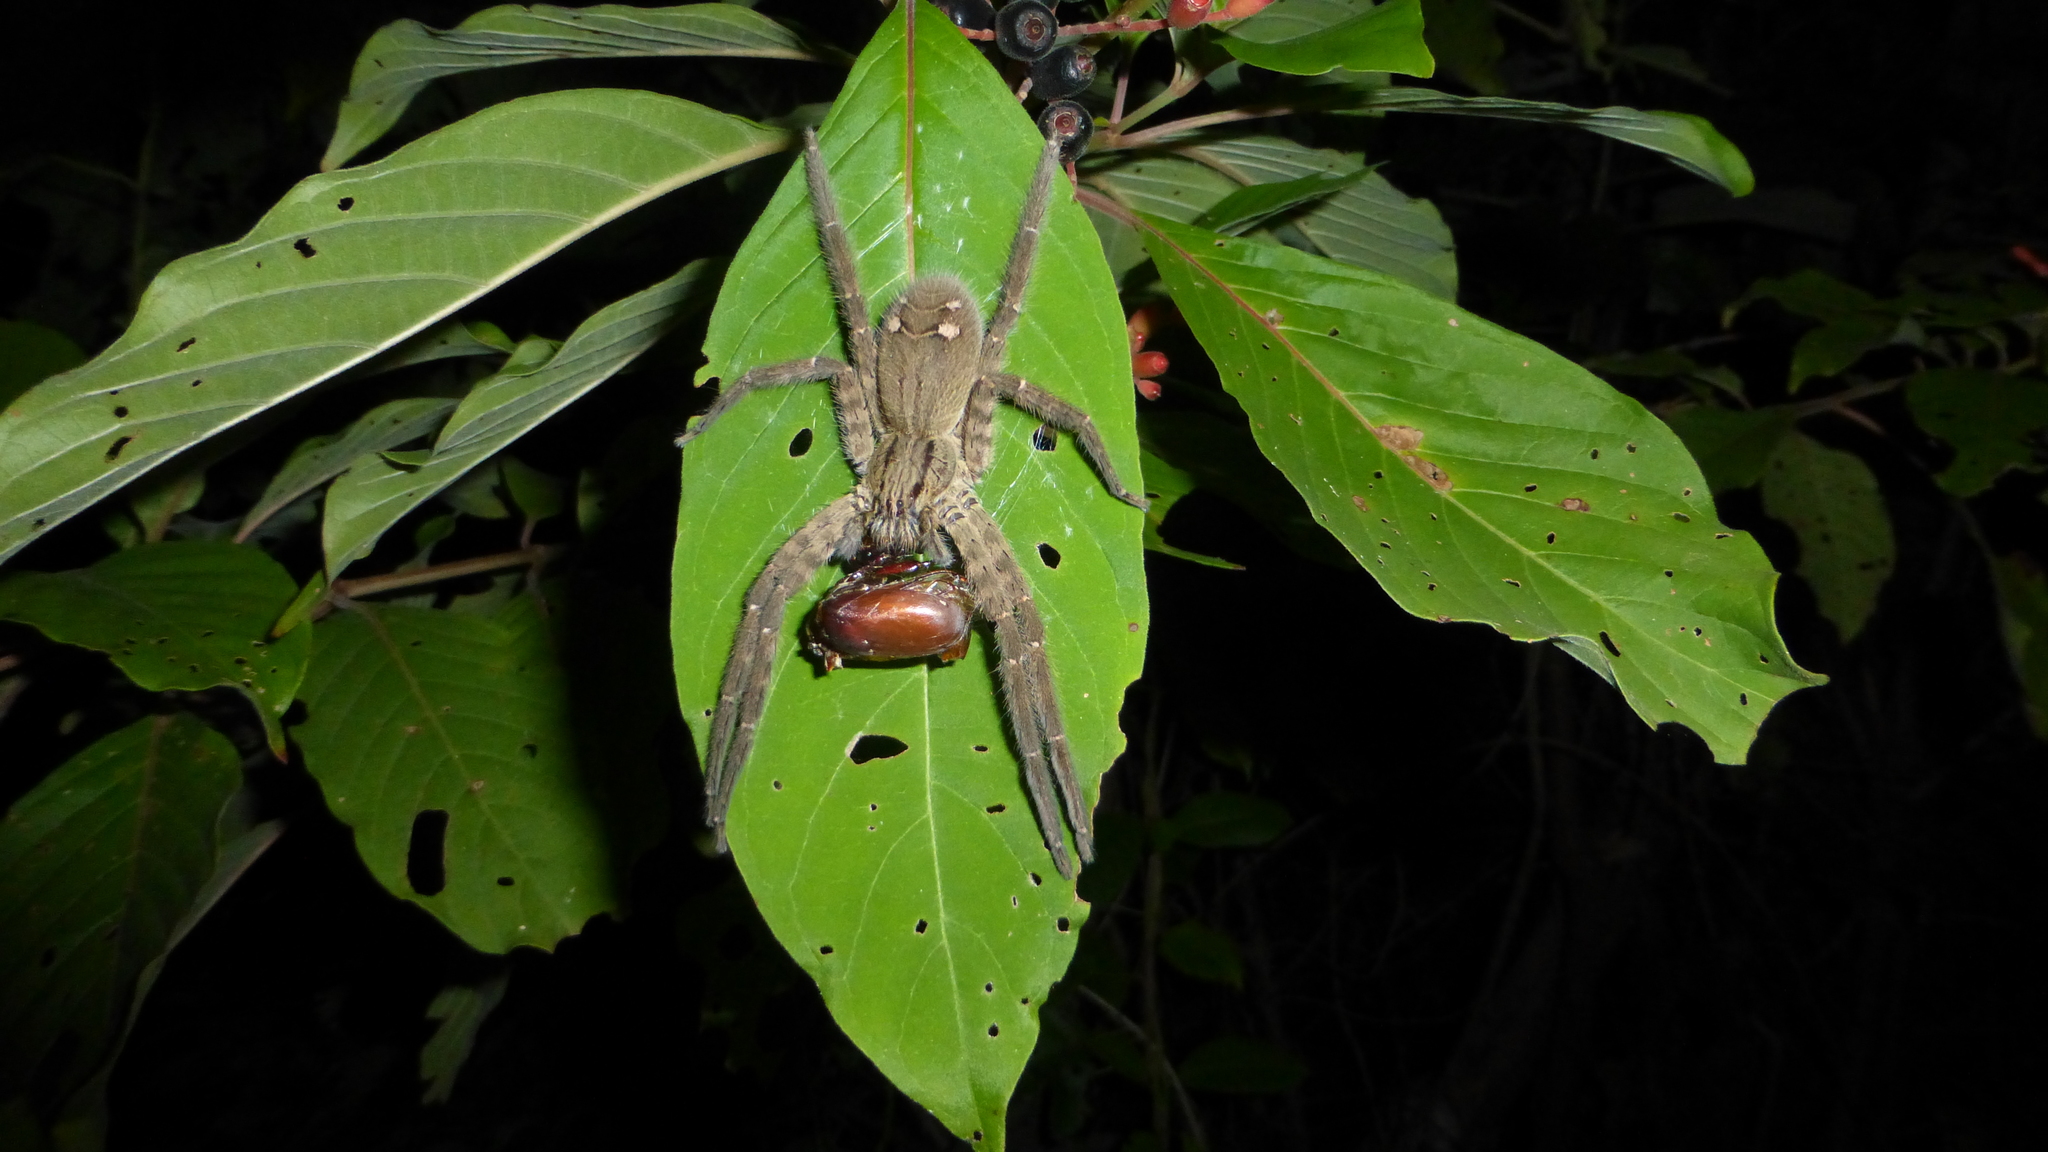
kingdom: Animalia
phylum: Arthropoda
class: Arachnida
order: Araneae
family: Trechaleidae
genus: Cupiennius
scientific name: Cupiennius salei
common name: Wandering spiders
